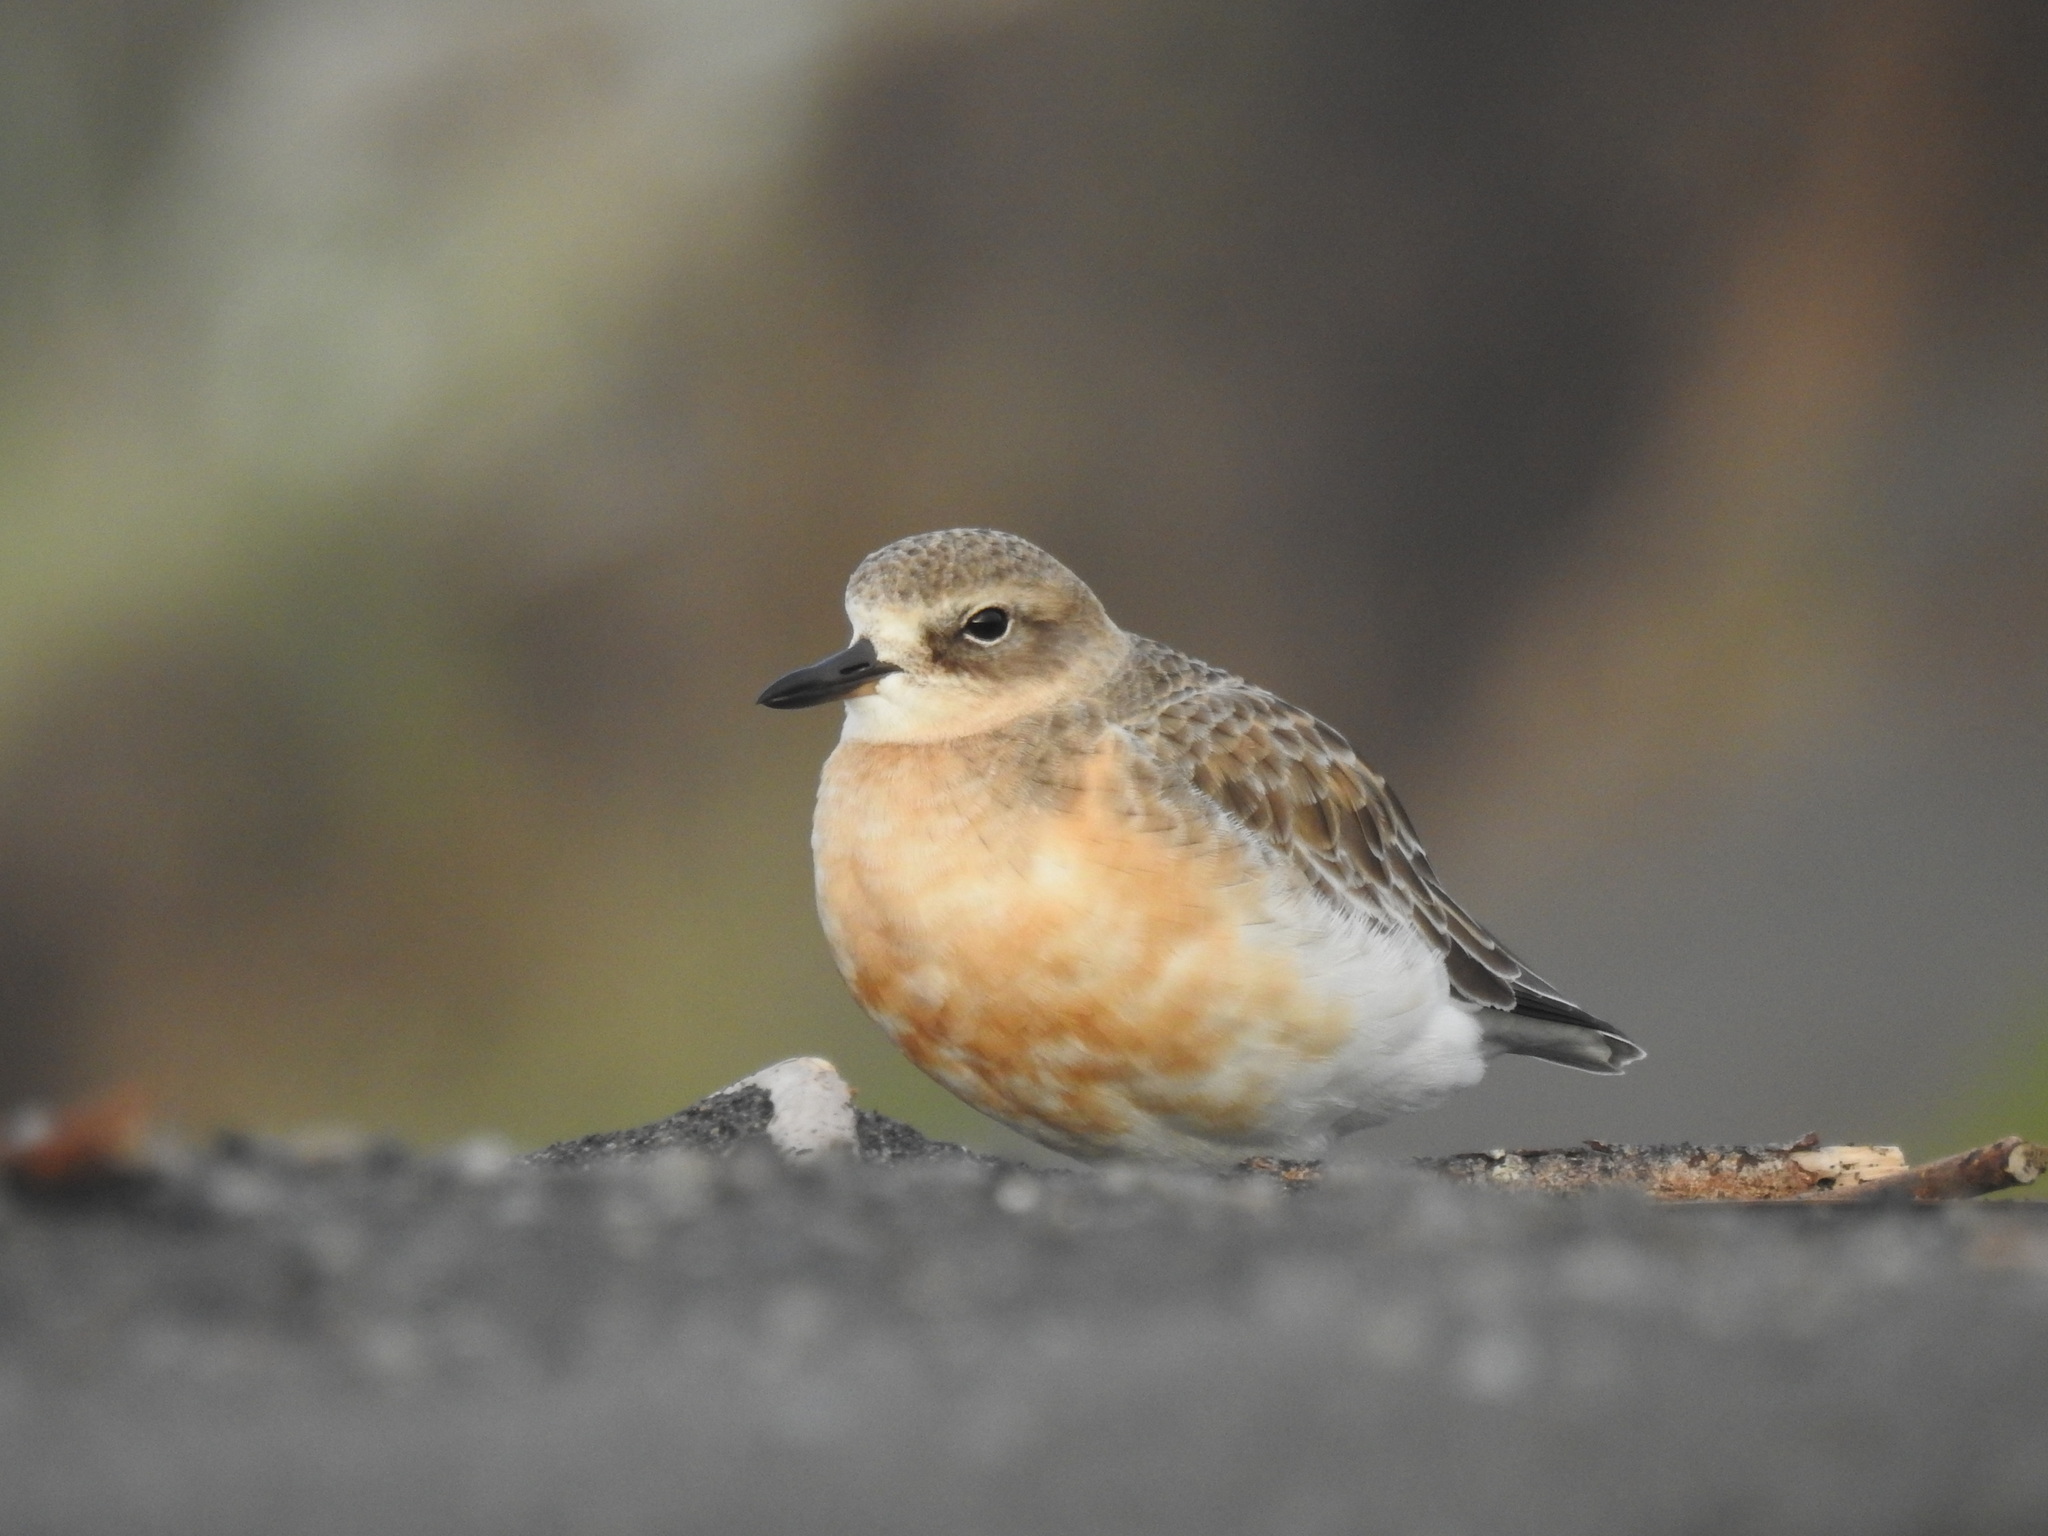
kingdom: Animalia
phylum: Chordata
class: Aves
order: Charadriiformes
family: Charadriidae
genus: Anarhynchus
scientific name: Anarhynchus
